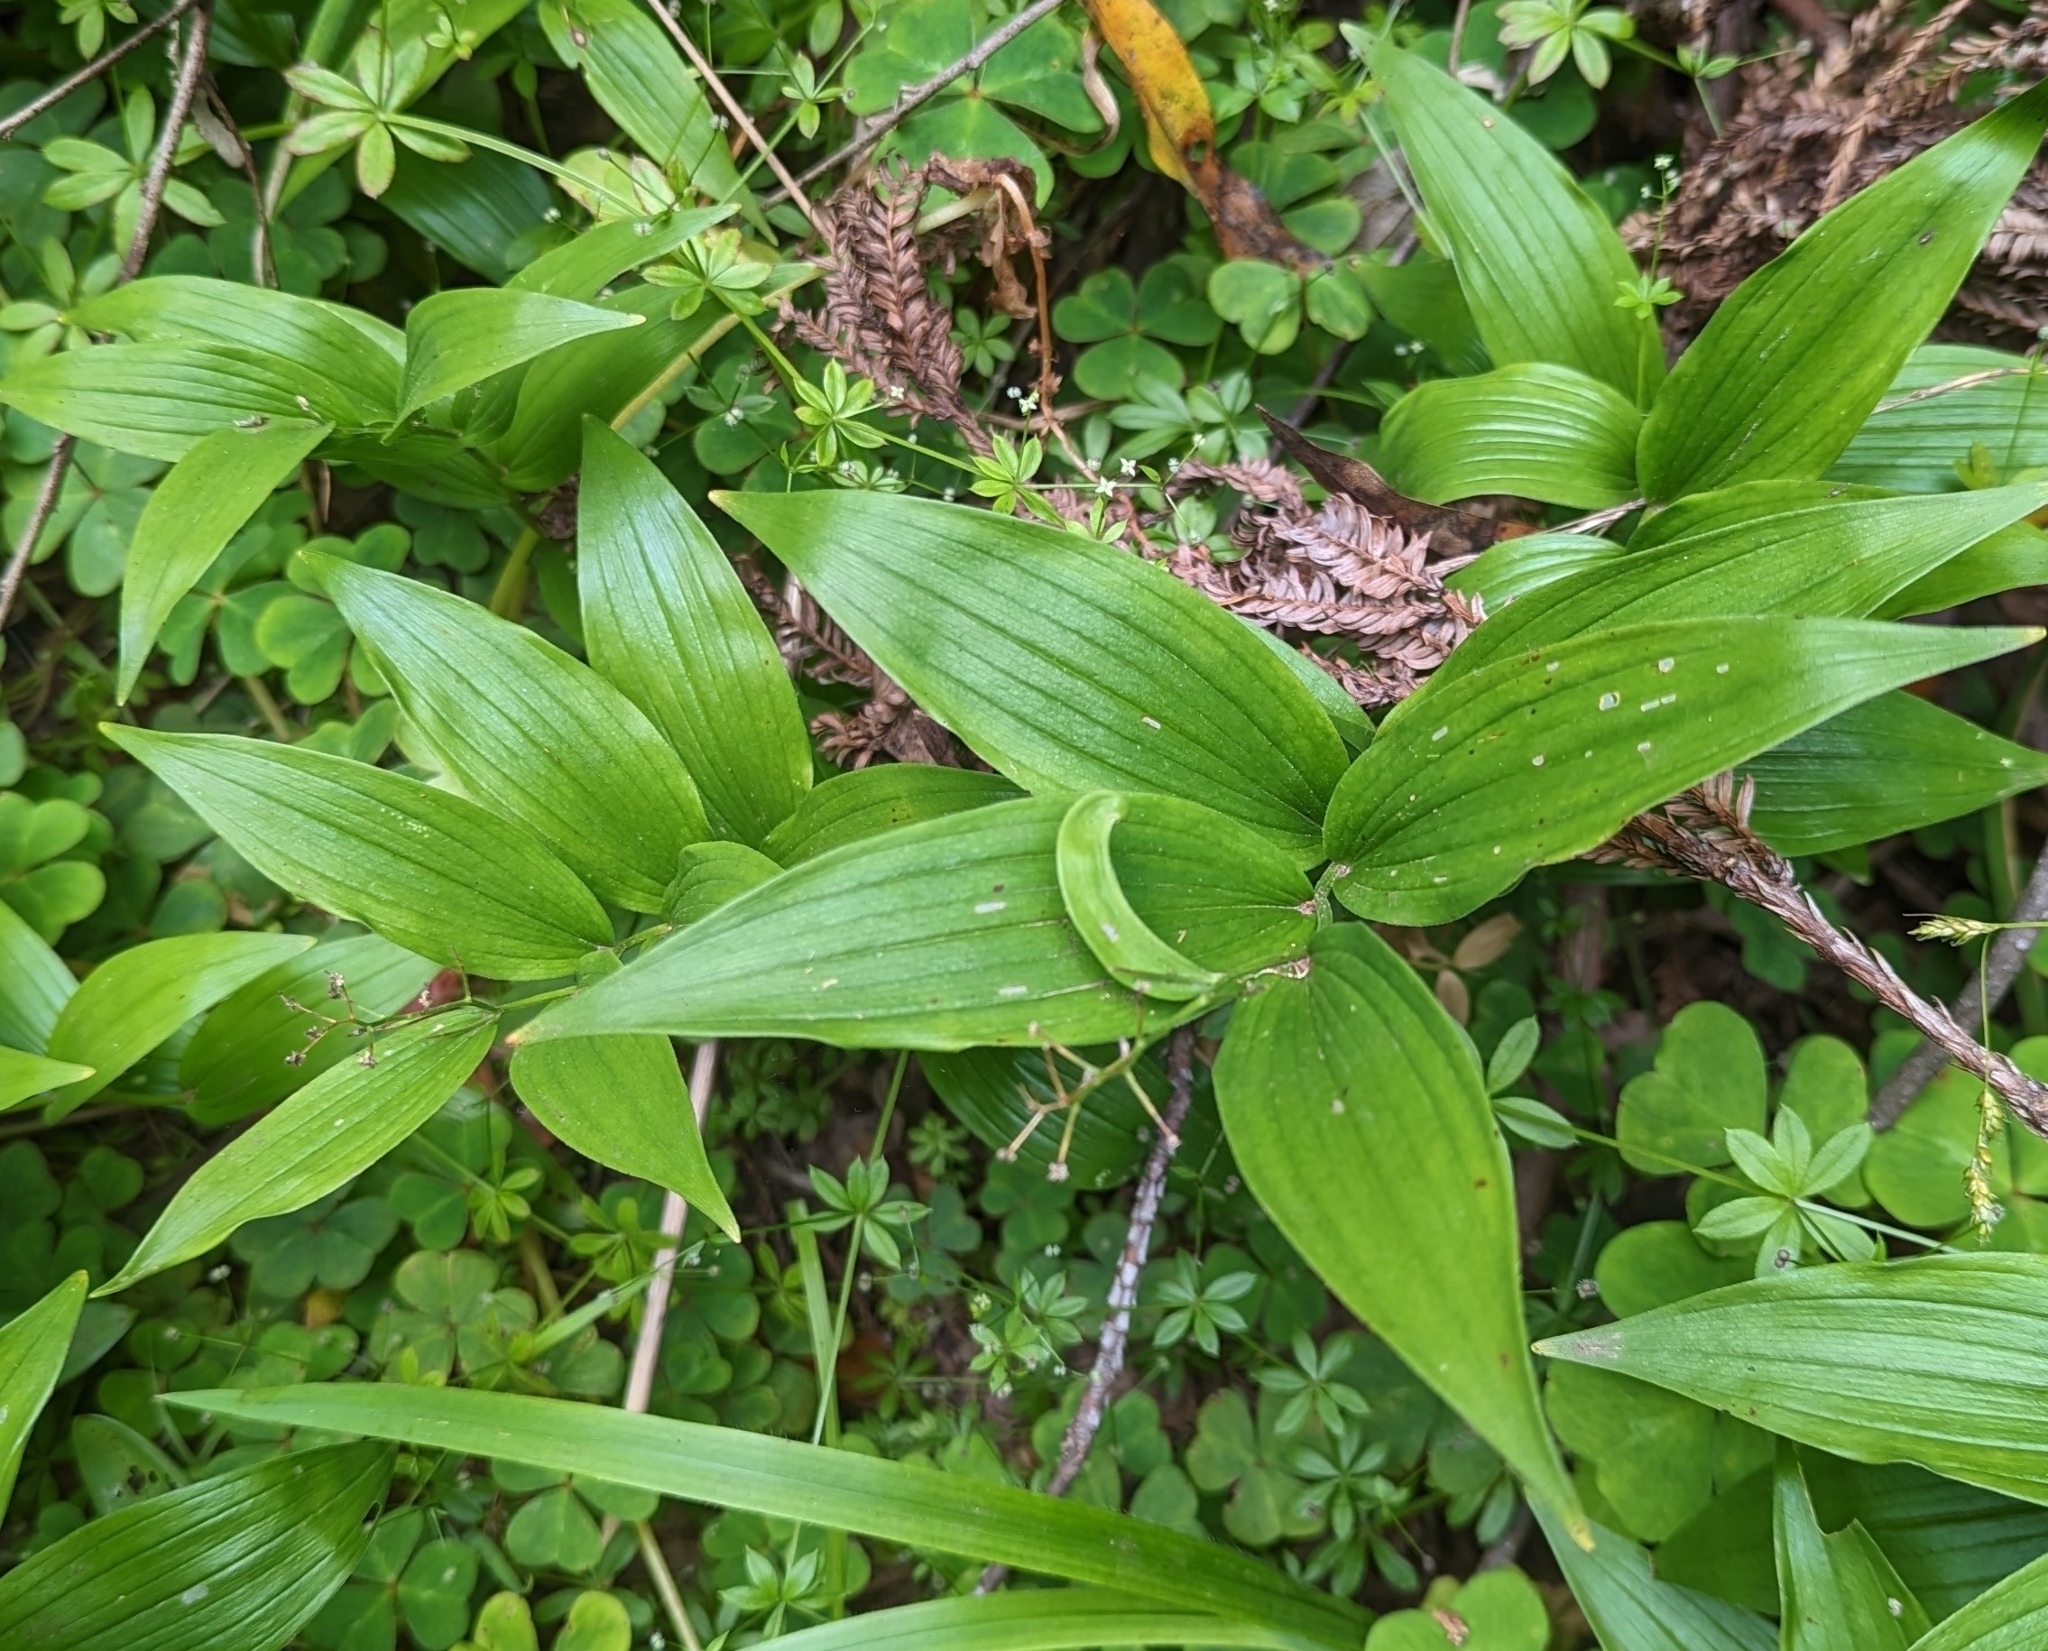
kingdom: Plantae
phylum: Tracheophyta
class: Liliopsida
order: Asparagales
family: Asparagaceae
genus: Maianthemum
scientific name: Maianthemum stellatum
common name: Little false solomon's seal
